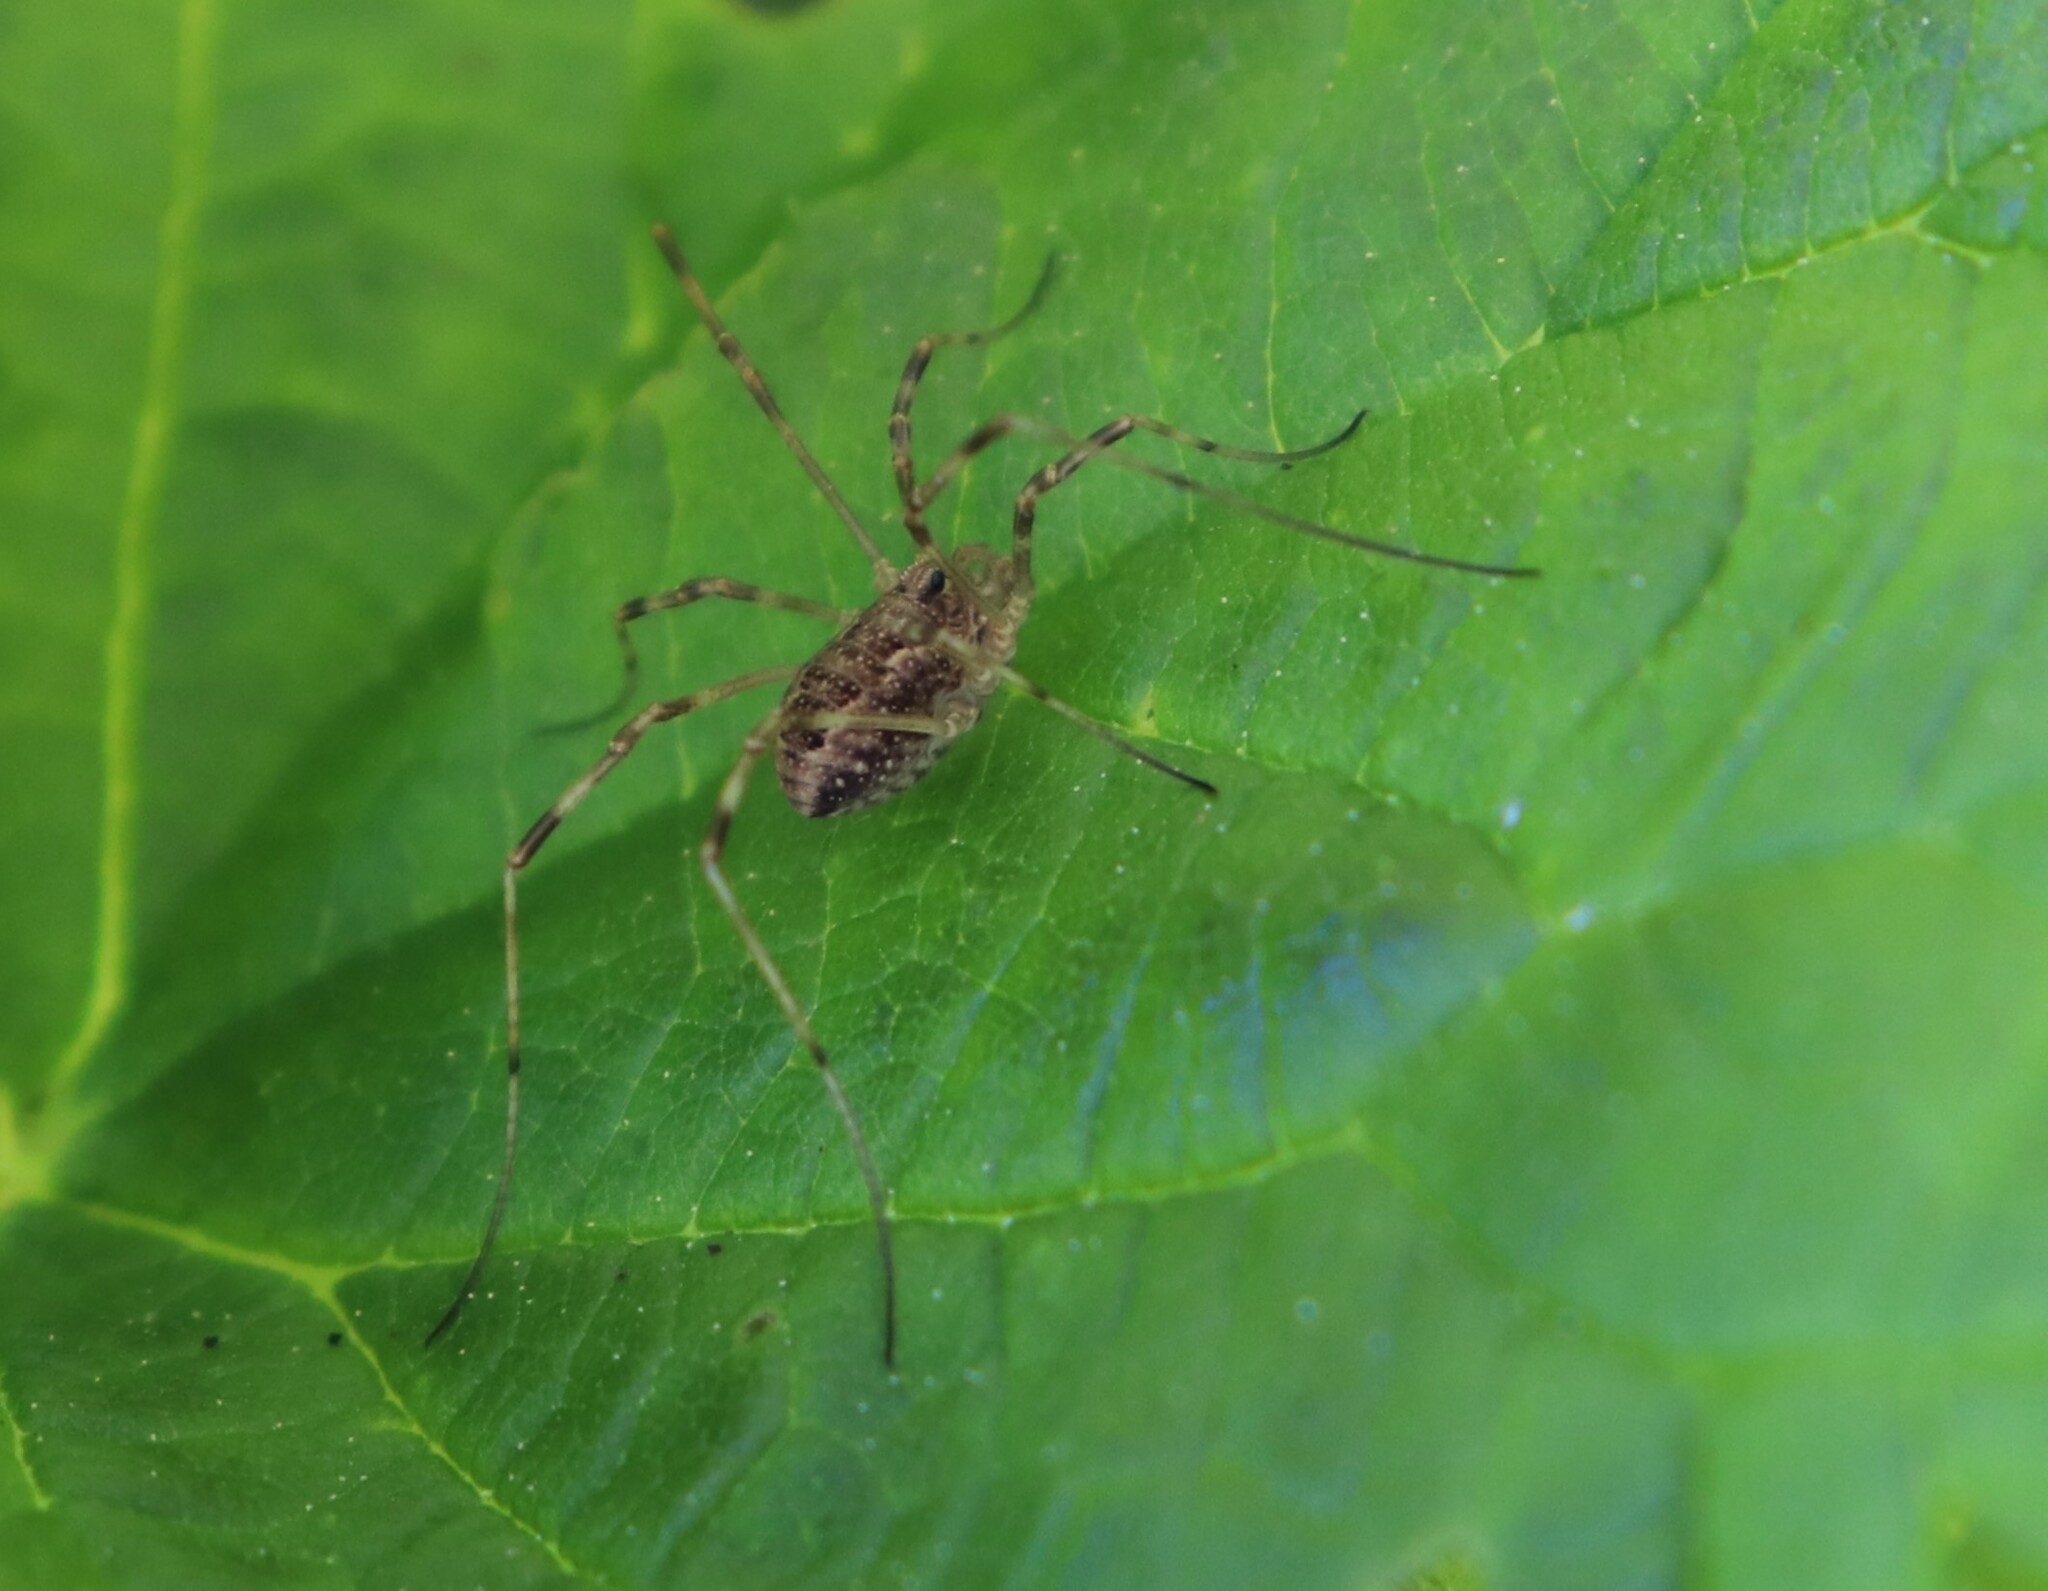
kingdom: Animalia
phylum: Arthropoda
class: Arachnida
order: Opiliones
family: Phalangiidae
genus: Rilaena
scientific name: Rilaena triangularis
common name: Spring harvestman
